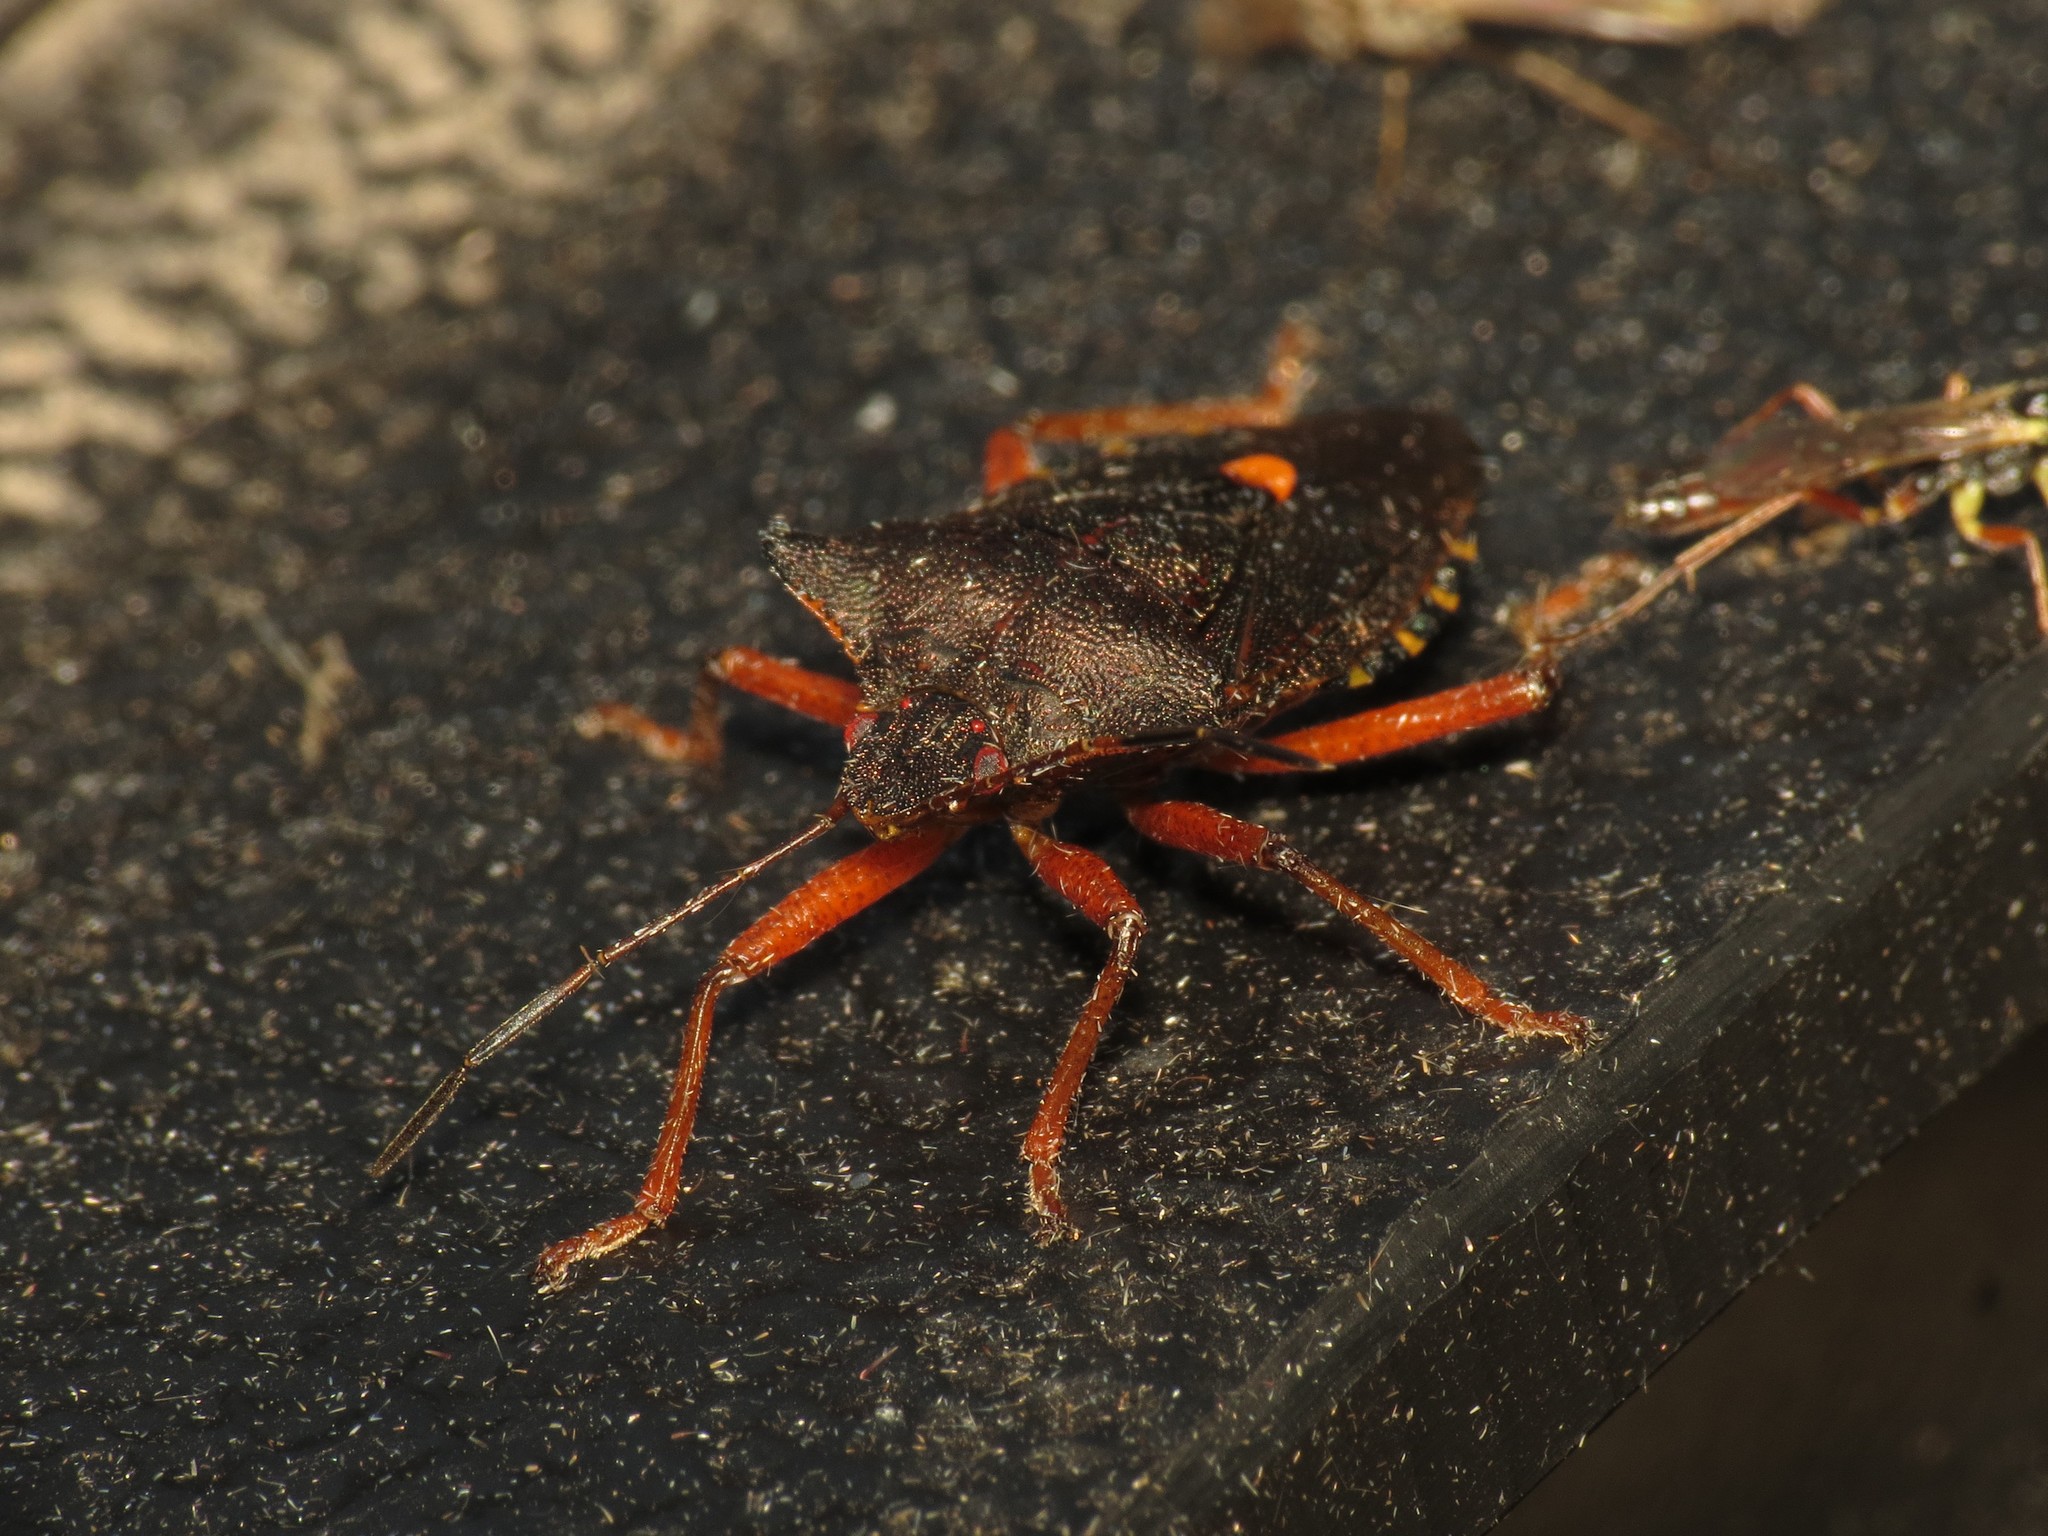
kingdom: Animalia
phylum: Arthropoda
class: Insecta
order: Hemiptera
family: Pentatomidae
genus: Pentatoma
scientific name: Pentatoma rufipes
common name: Forest bug
